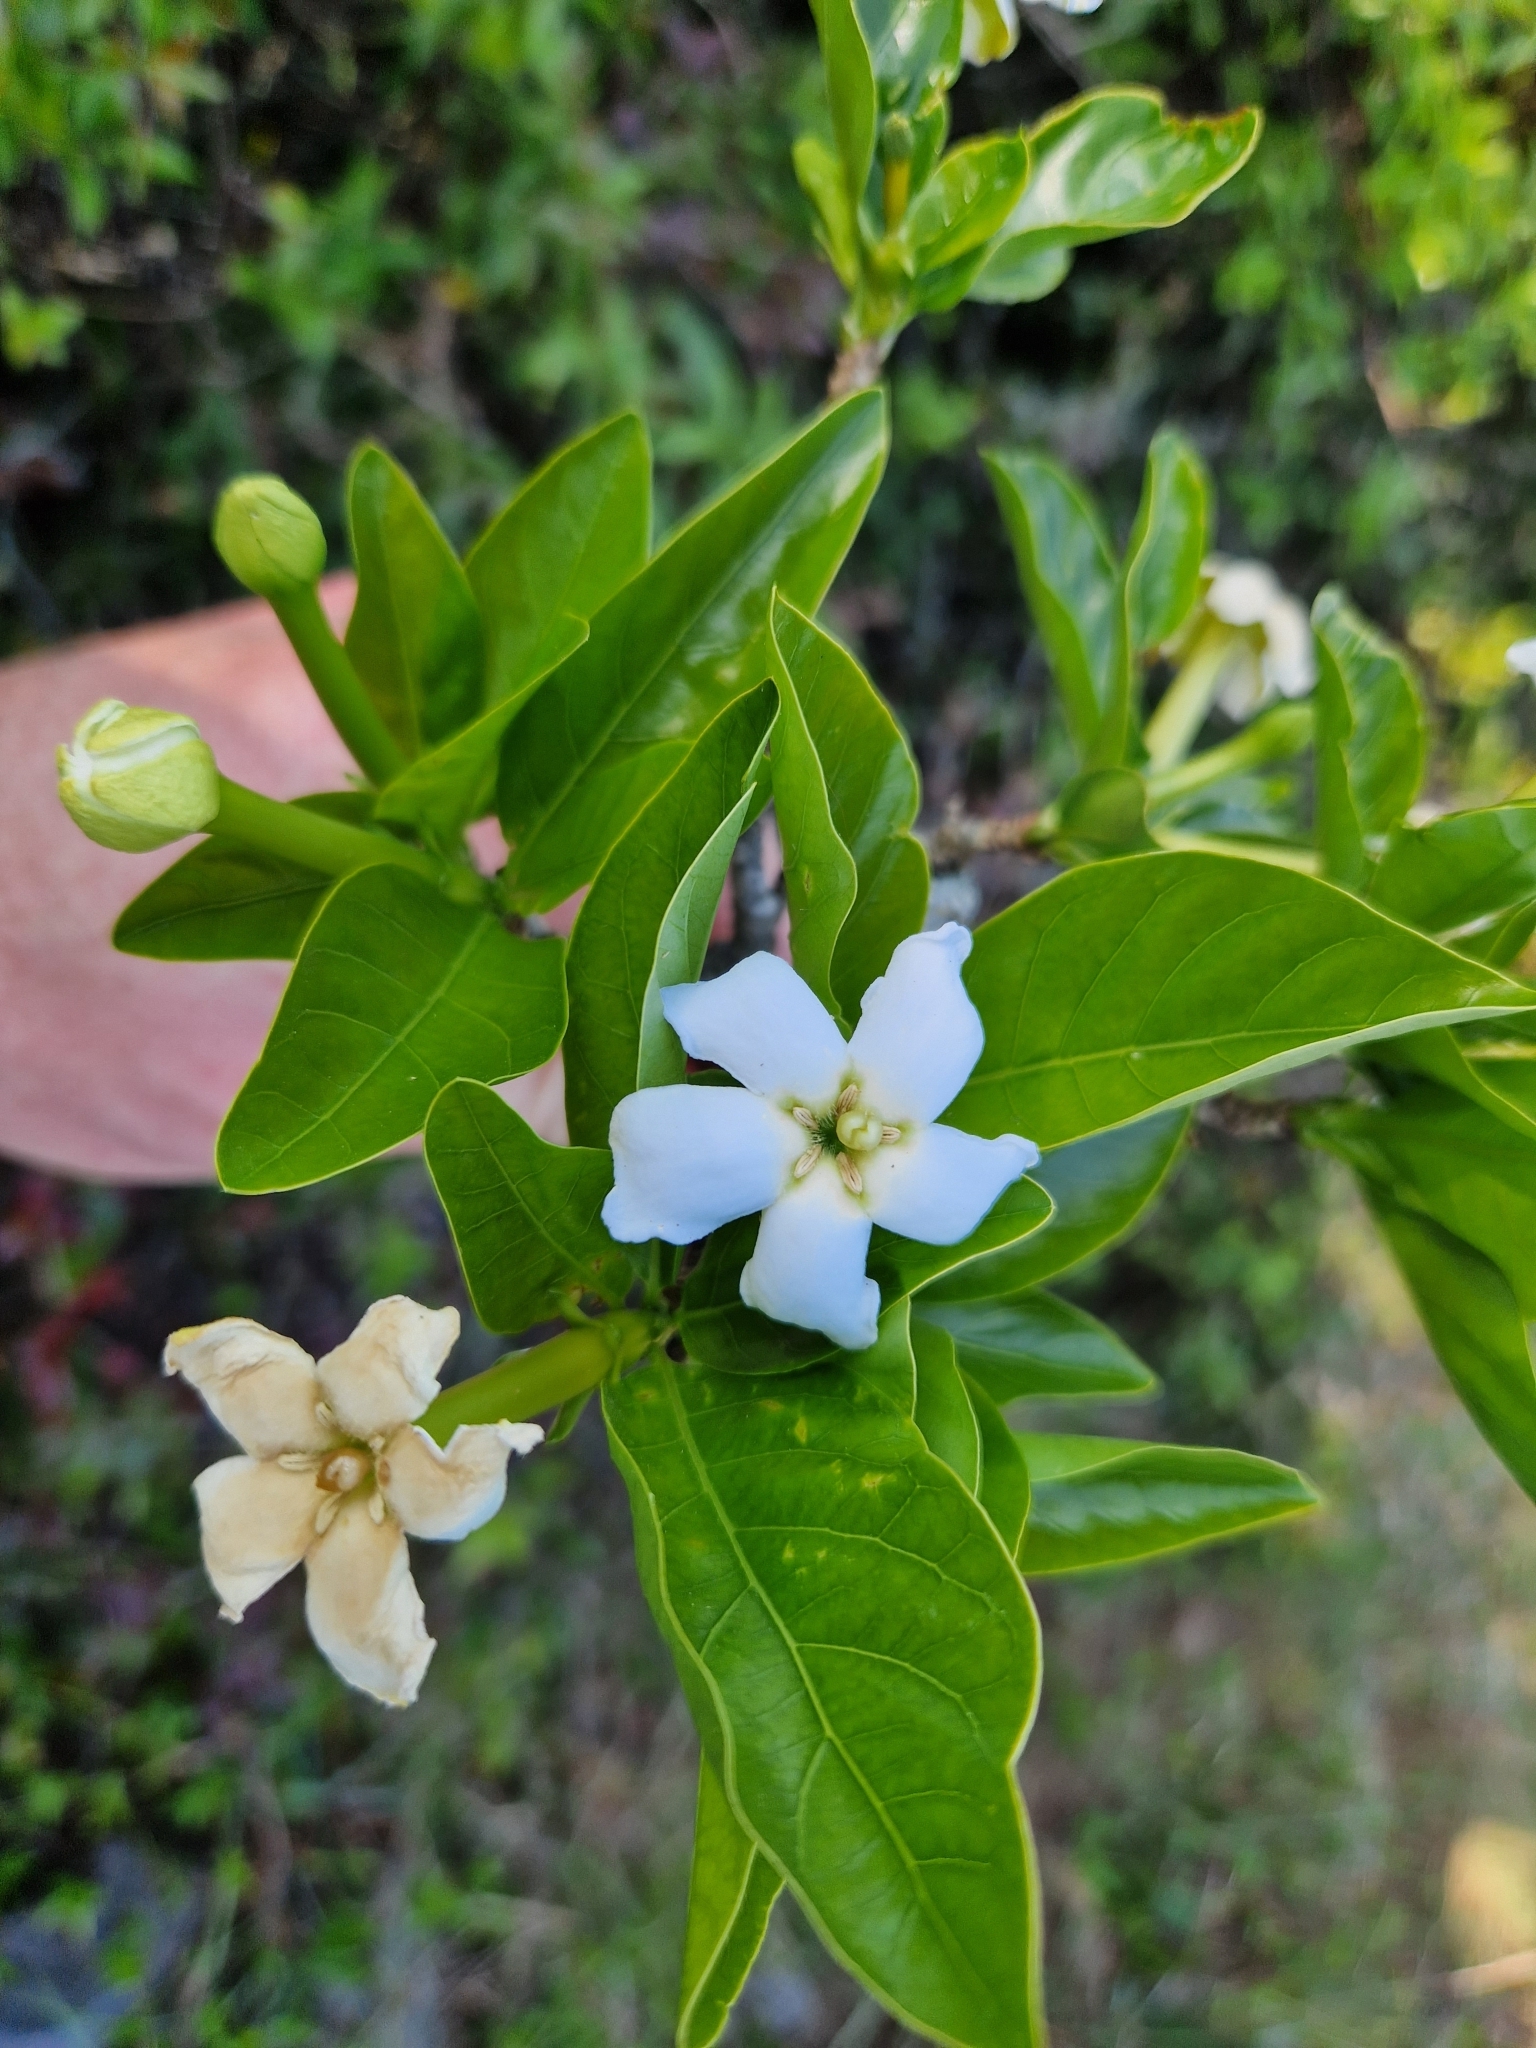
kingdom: Plantae
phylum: Tracheophyta
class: Magnoliopsida
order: Gentianales
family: Rubiaceae
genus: Randia
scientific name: Randia ferox
